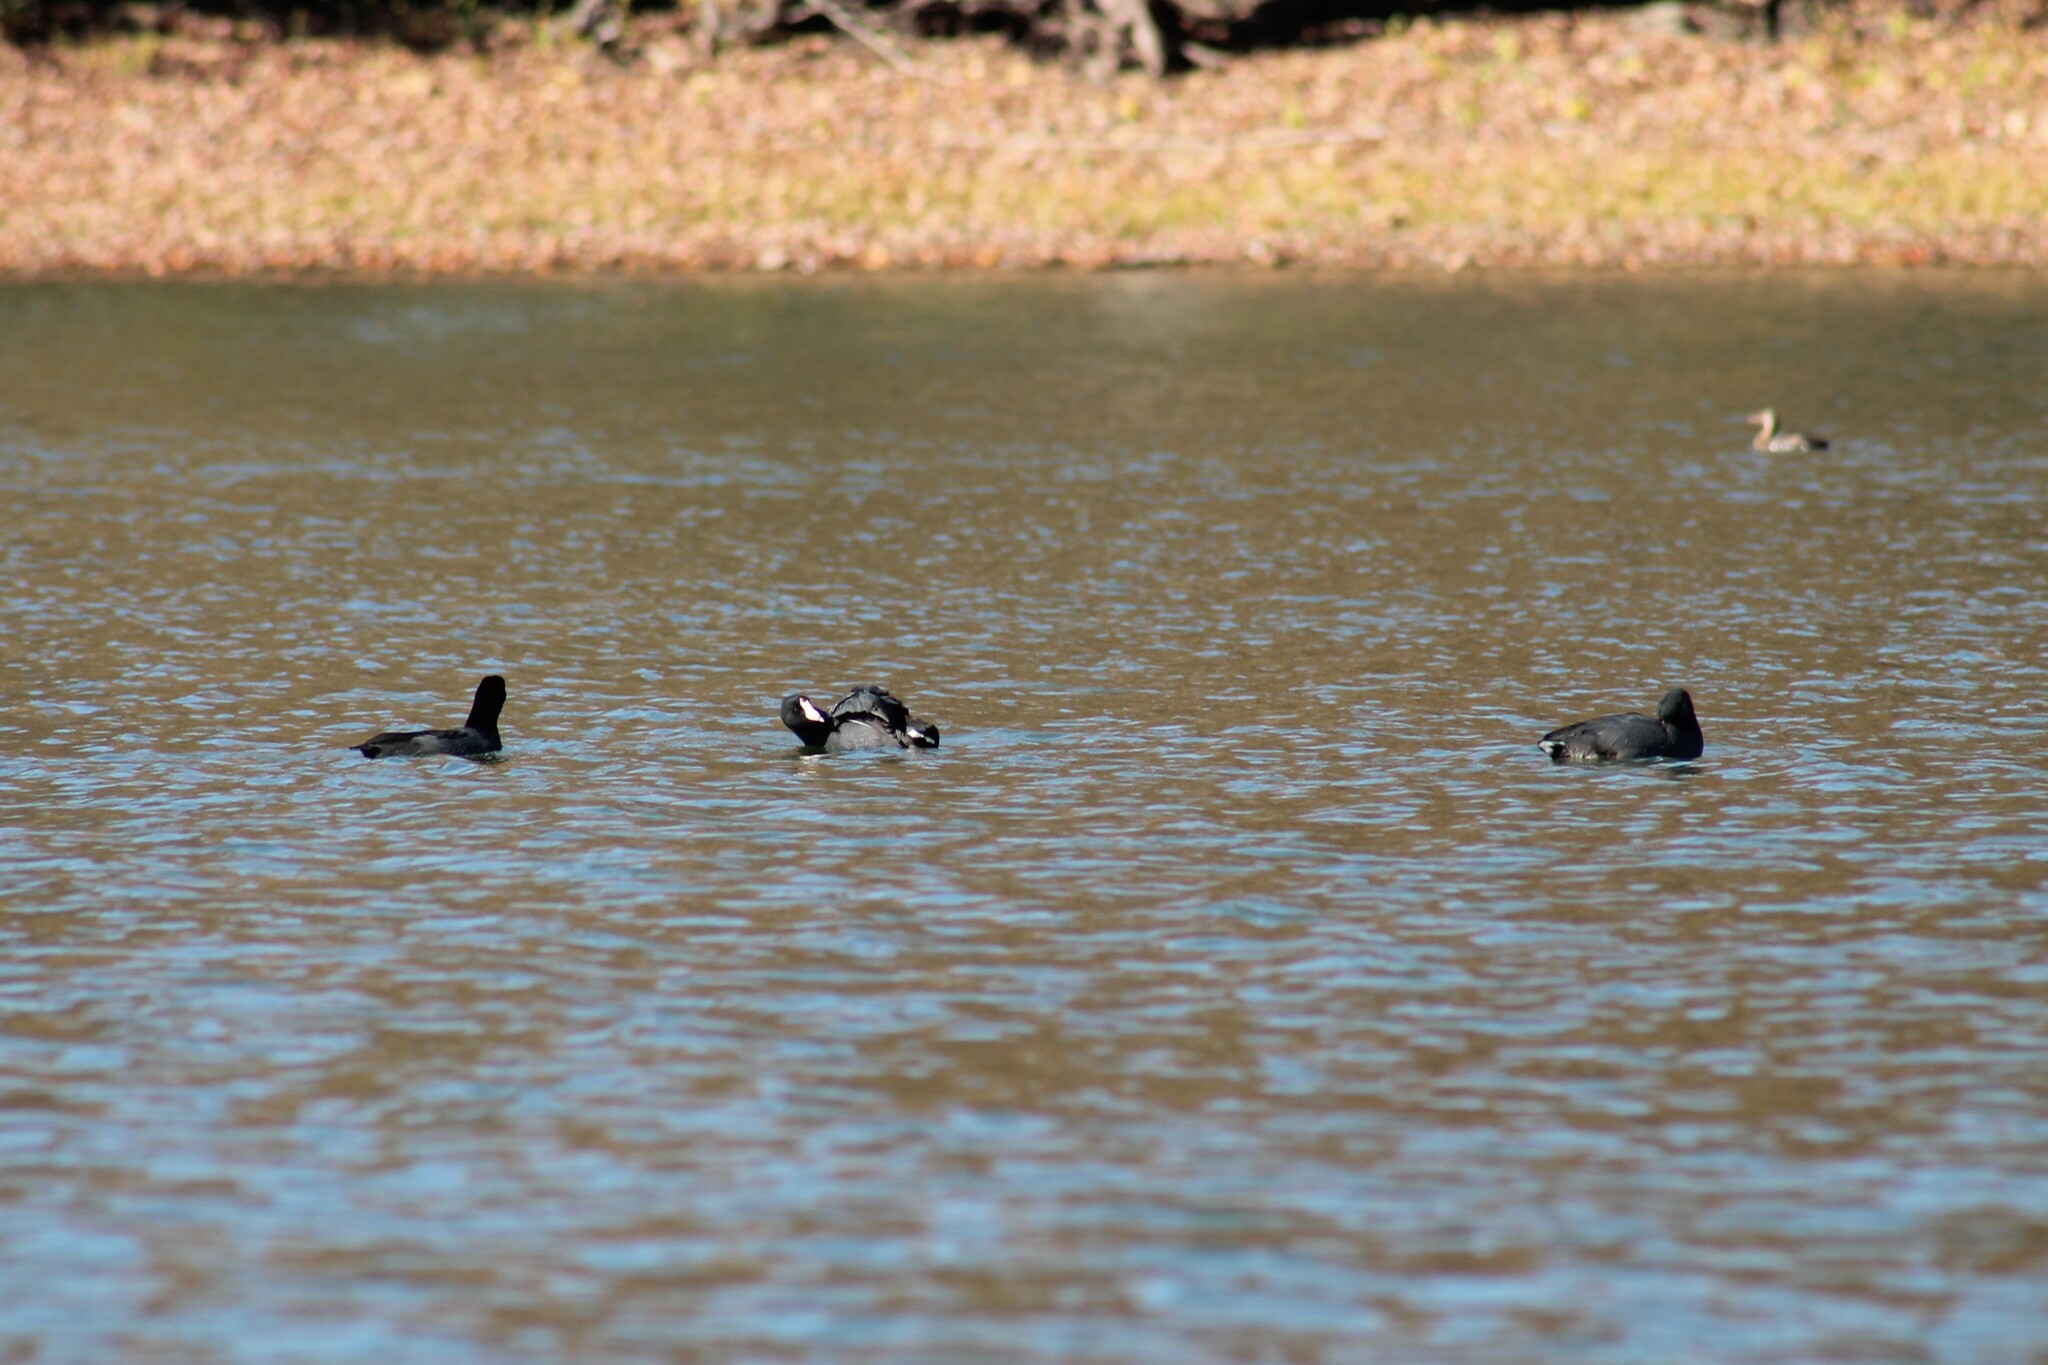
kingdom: Animalia
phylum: Chordata
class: Aves
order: Gruiformes
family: Rallidae
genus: Fulica
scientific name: Fulica americana
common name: American coot
